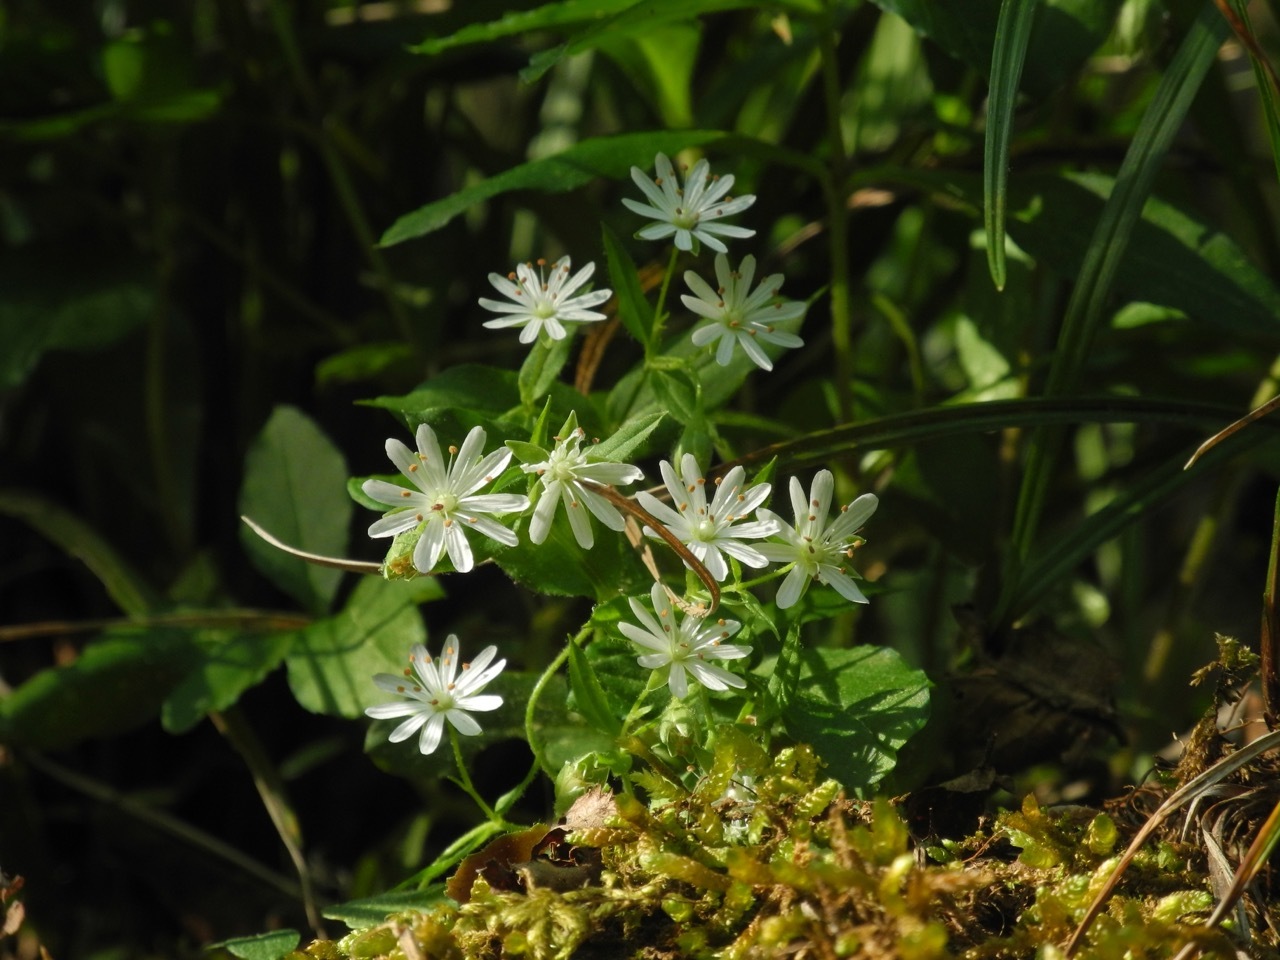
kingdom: Plantae
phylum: Tracheophyta
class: Magnoliopsida
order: Caryophyllales
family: Caryophyllaceae
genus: Stellaria
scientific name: Stellaria pubera
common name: Star chickweed
